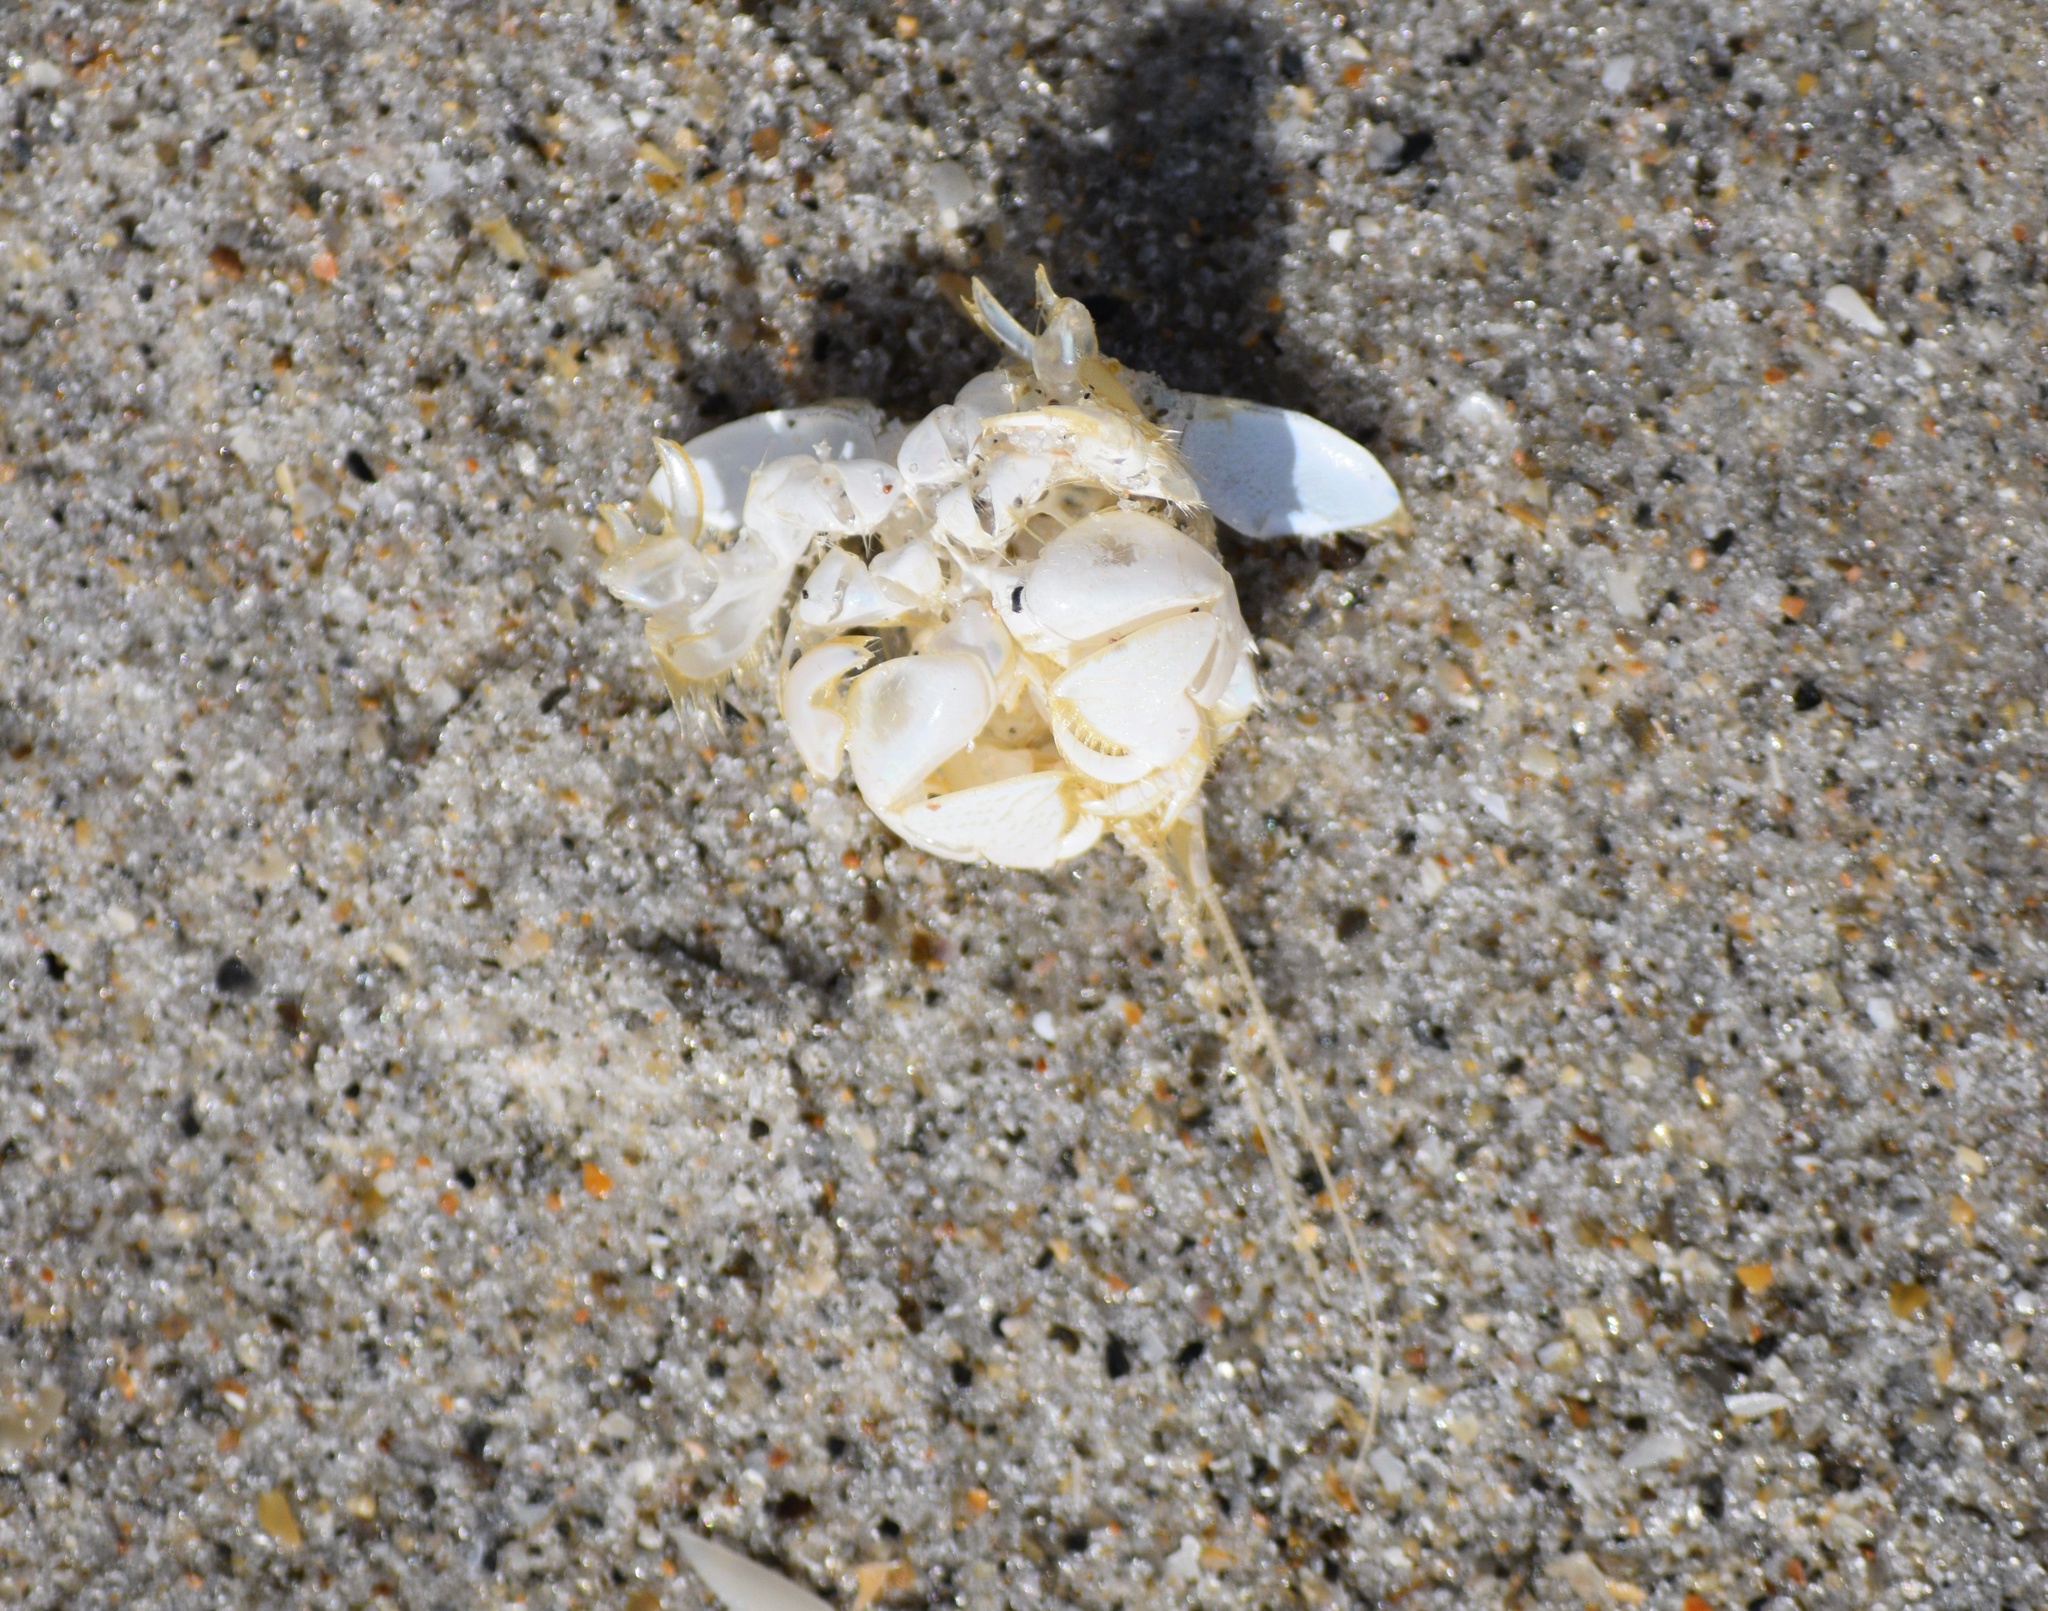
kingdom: Animalia
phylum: Arthropoda
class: Malacostraca
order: Decapoda
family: Albuneidae
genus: Lepidopa
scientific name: Lepidopa benedicti
